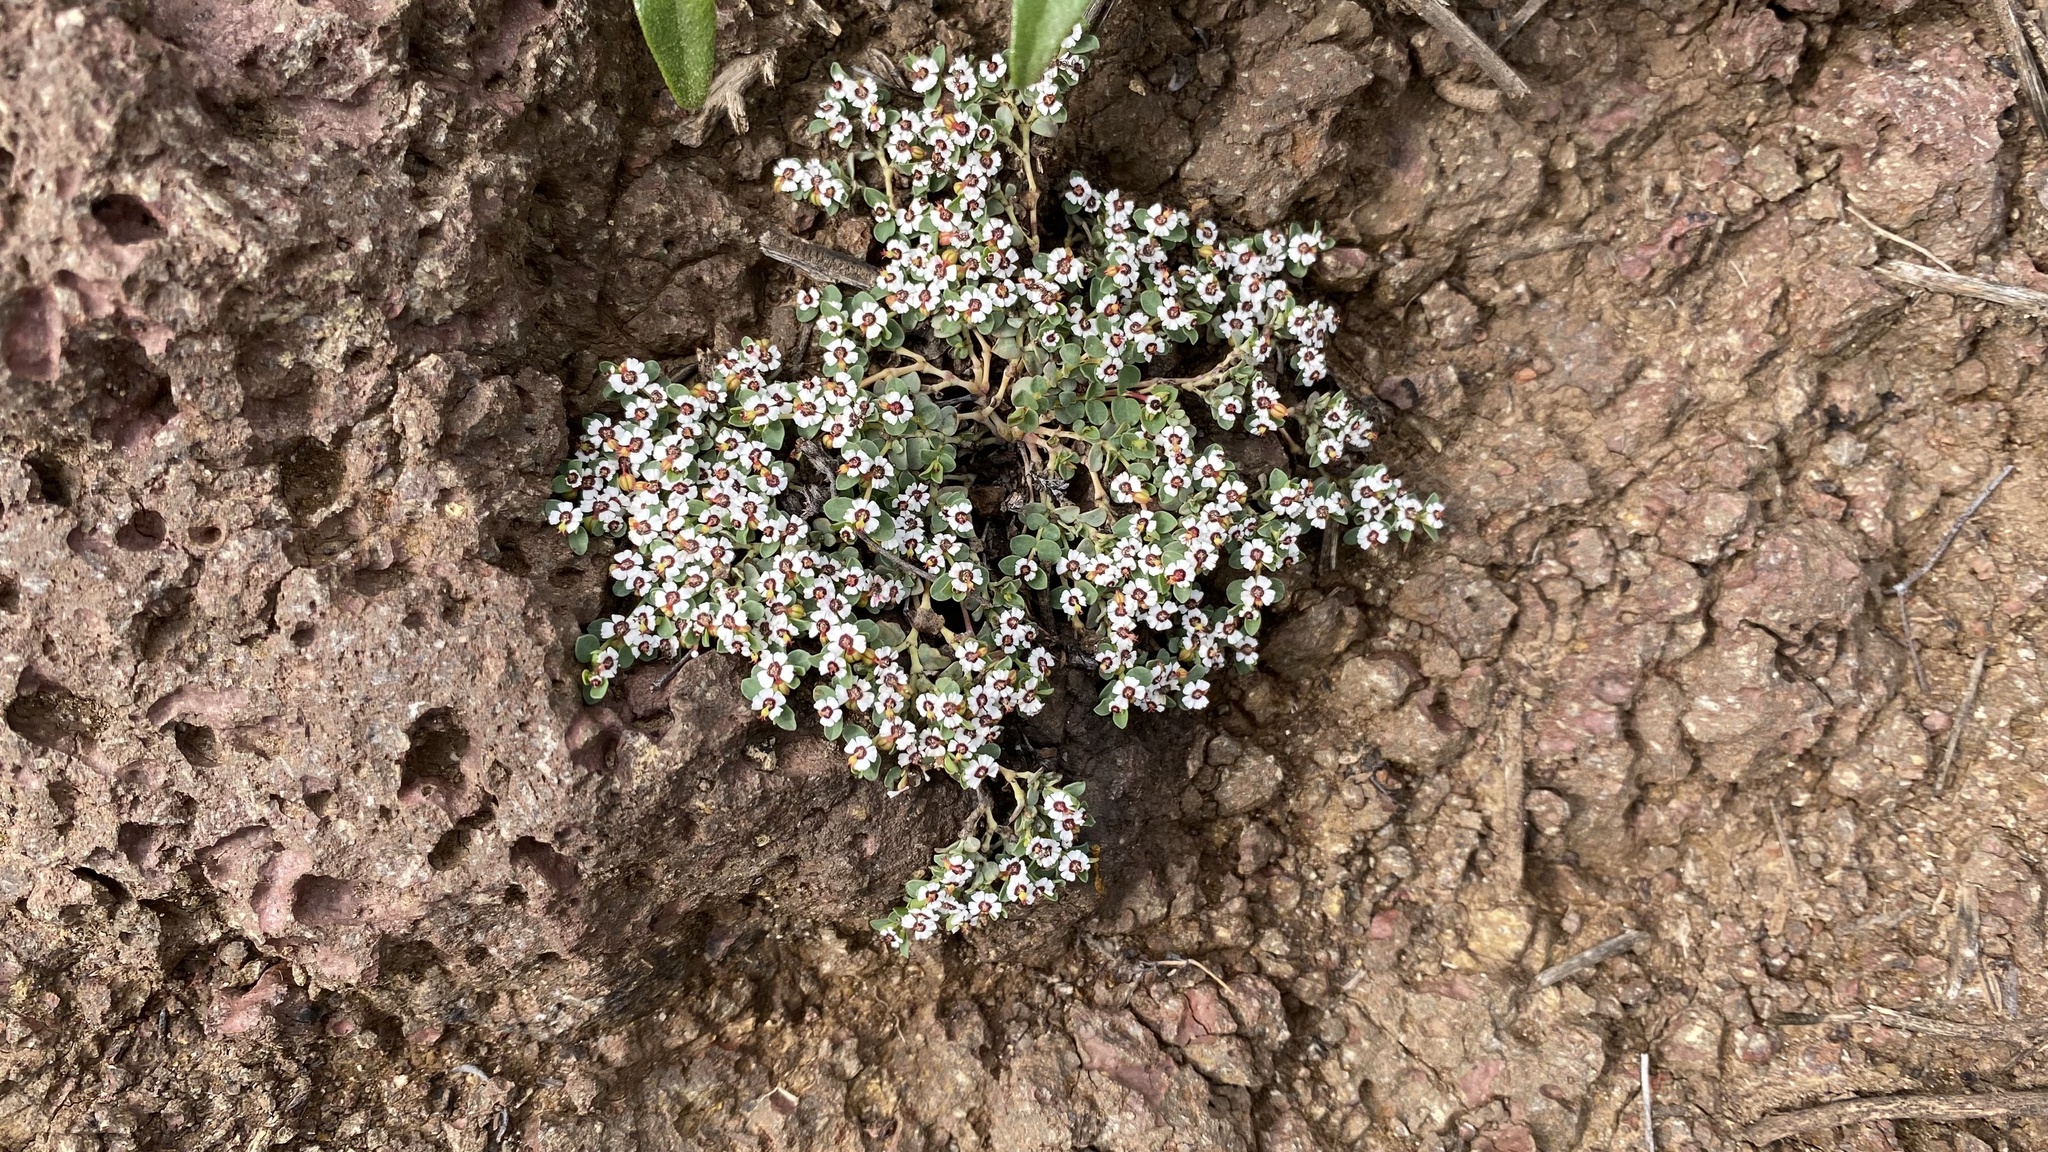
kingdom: Plantae
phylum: Tracheophyta
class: Magnoliopsida
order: Malpighiales
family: Euphorbiaceae
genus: Euphorbia
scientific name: Euphorbia polycarpa
